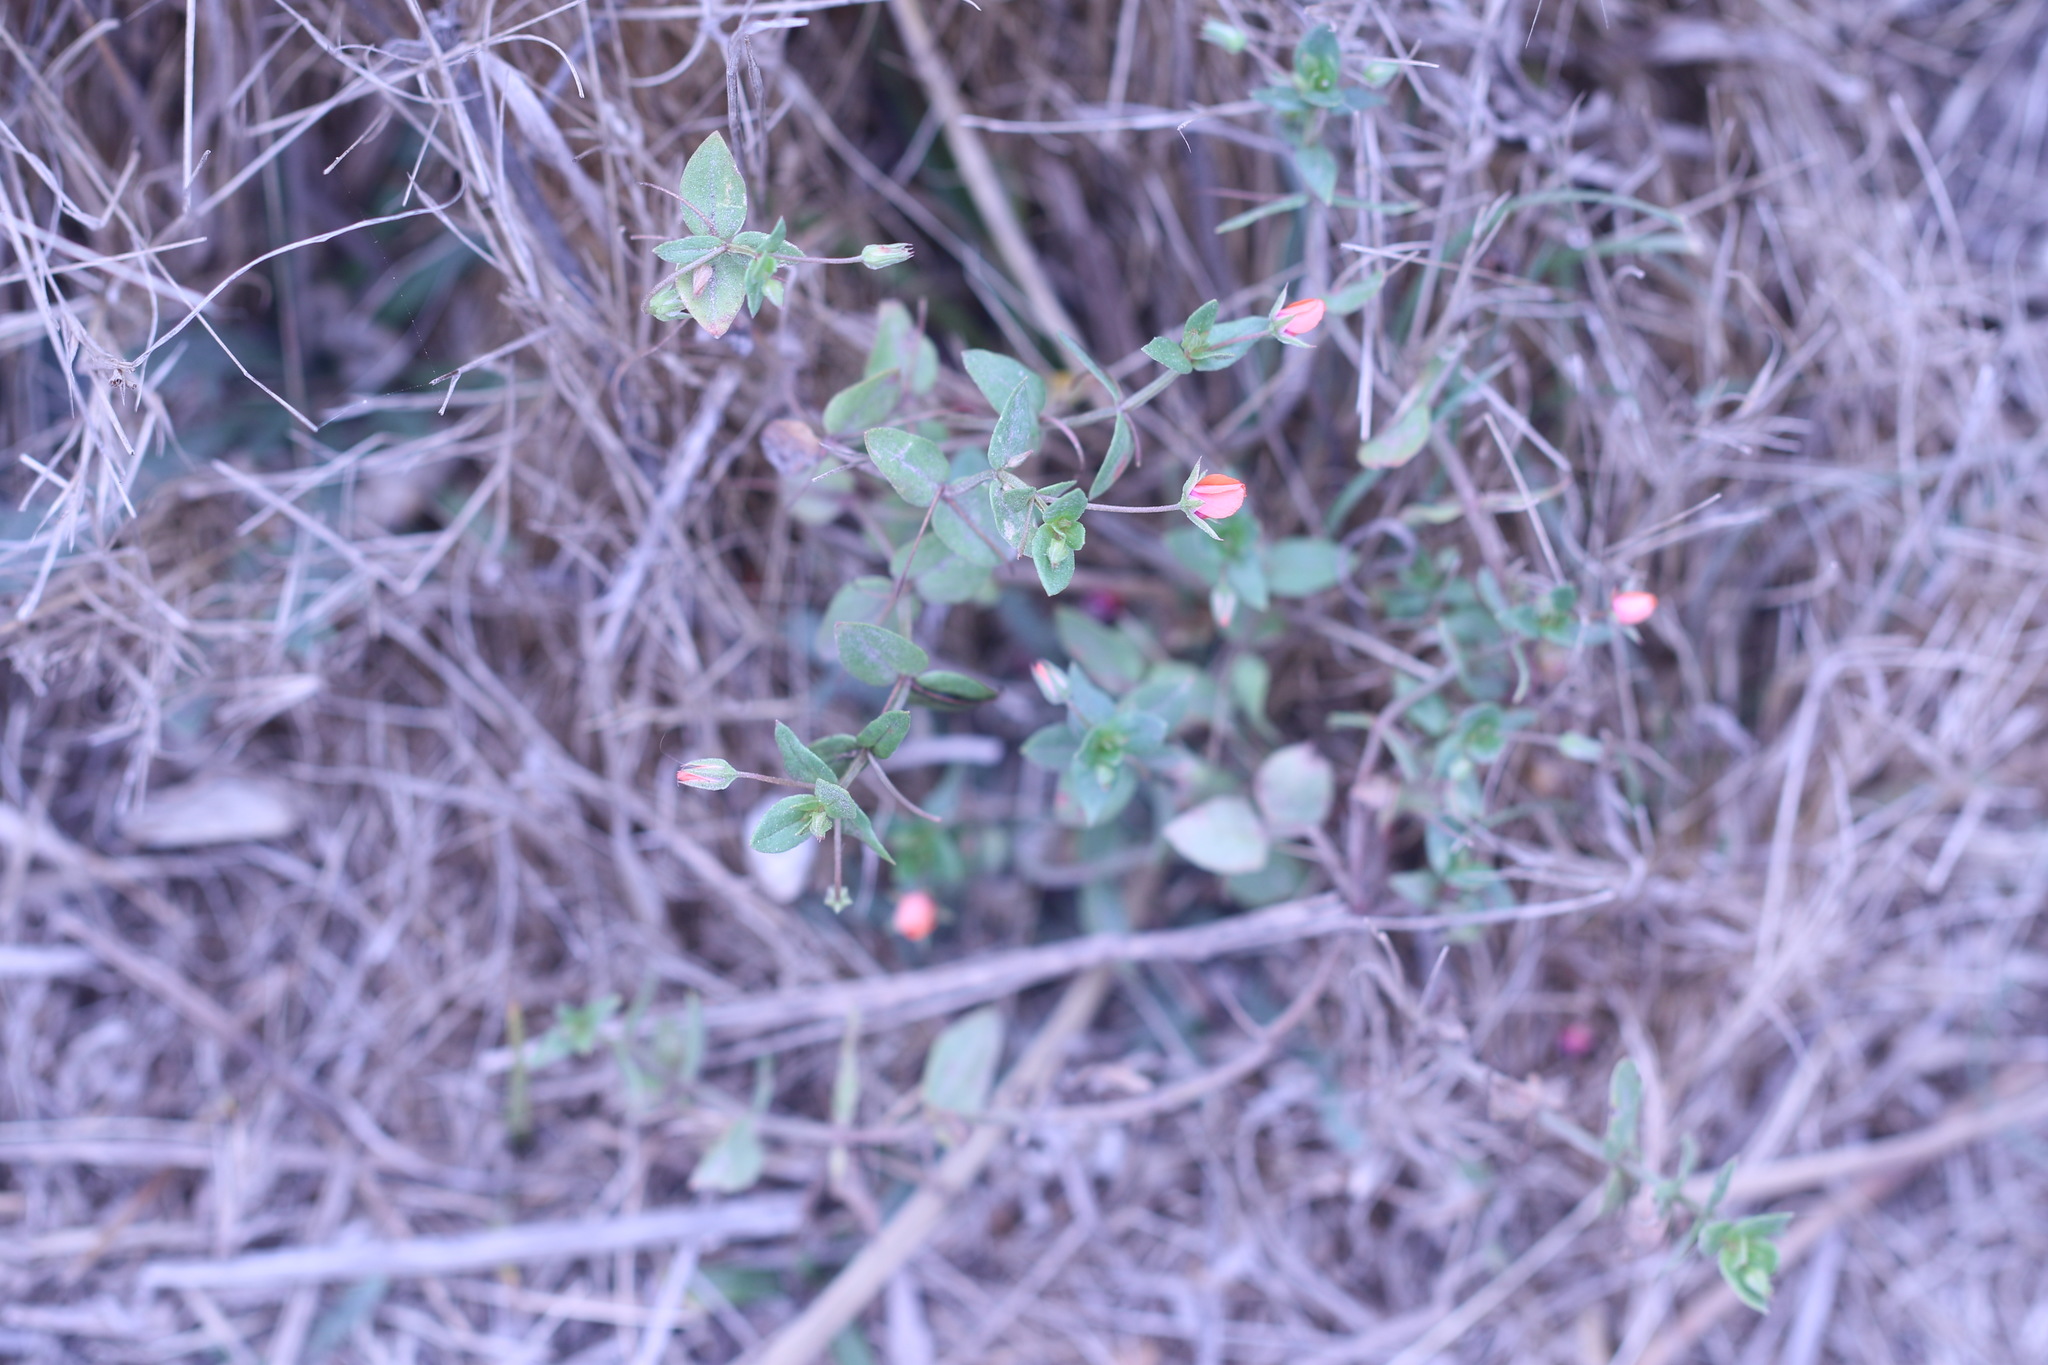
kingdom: Plantae
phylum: Tracheophyta
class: Magnoliopsida
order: Ericales
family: Primulaceae
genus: Lysimachia
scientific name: Lysimachia arvensis
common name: Scarlet pimpernel
